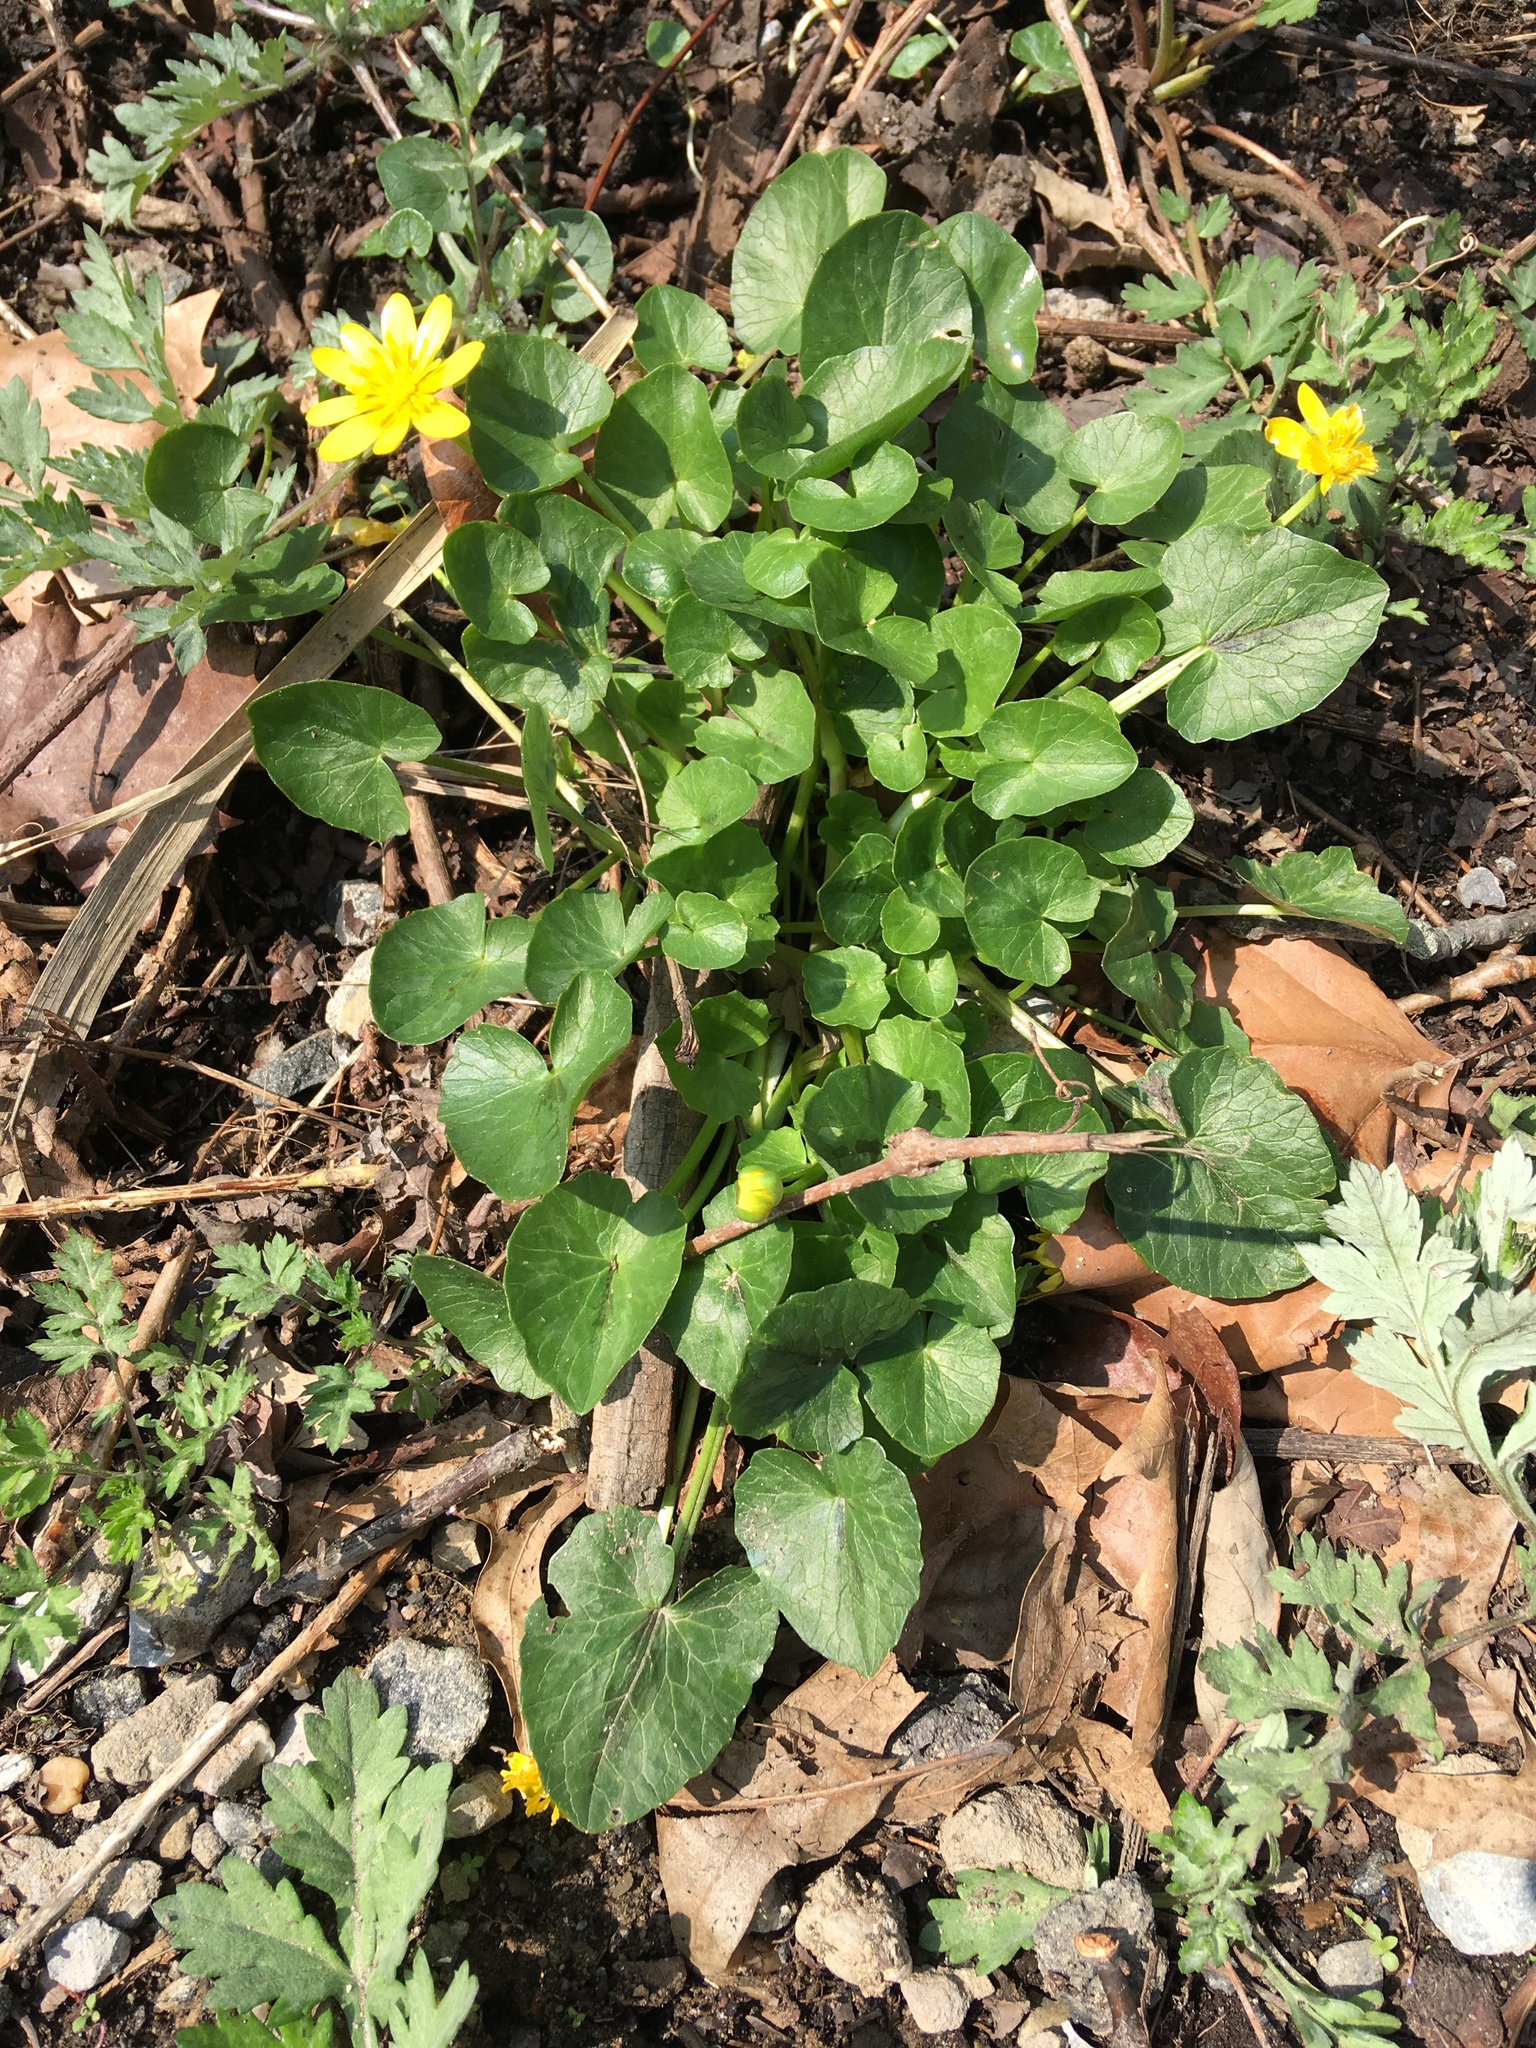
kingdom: Plantae
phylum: Tracheophyta
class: Magnoliopsida
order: Ranunculales
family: Ranunculaceae
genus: Ficaria
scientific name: Ficaria verna
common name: Lesser celandine
